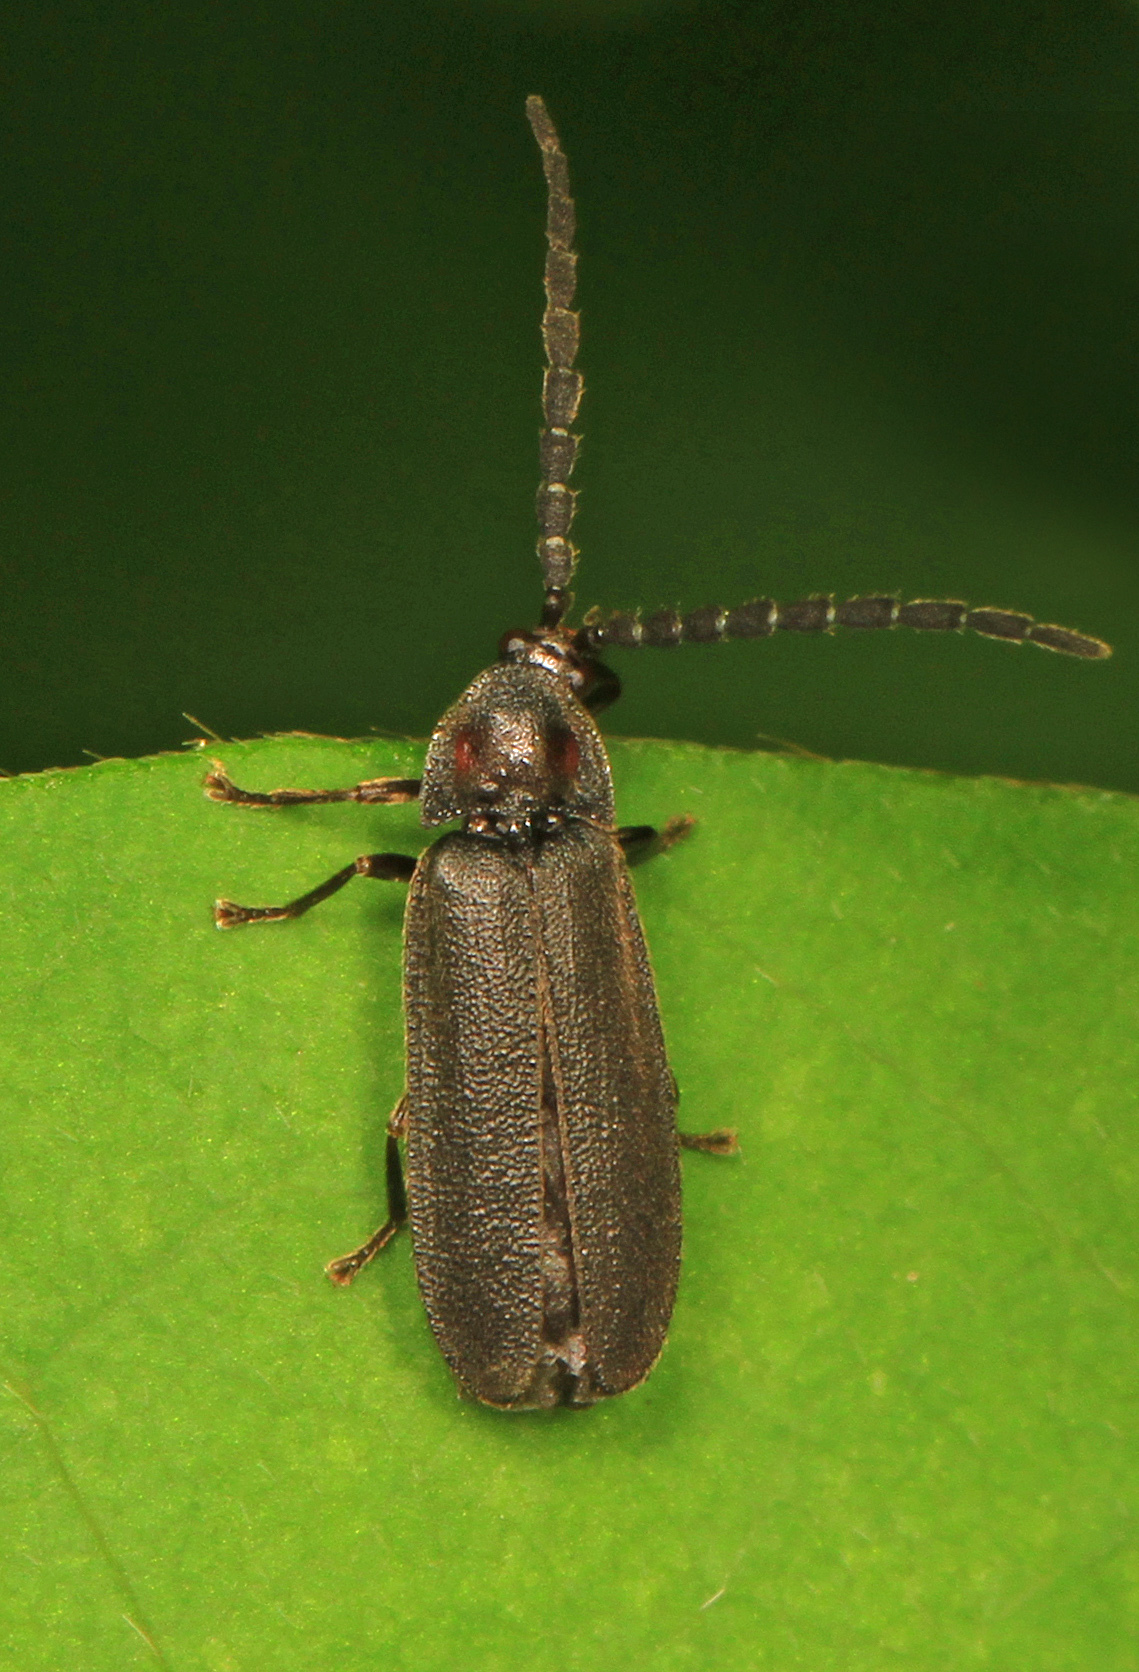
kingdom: Animalia
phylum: Arthropoda
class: Insecta
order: Coleoptera
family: Lampyridae
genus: Lucidota
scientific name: Lucidota punctata
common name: Dotted firefly
